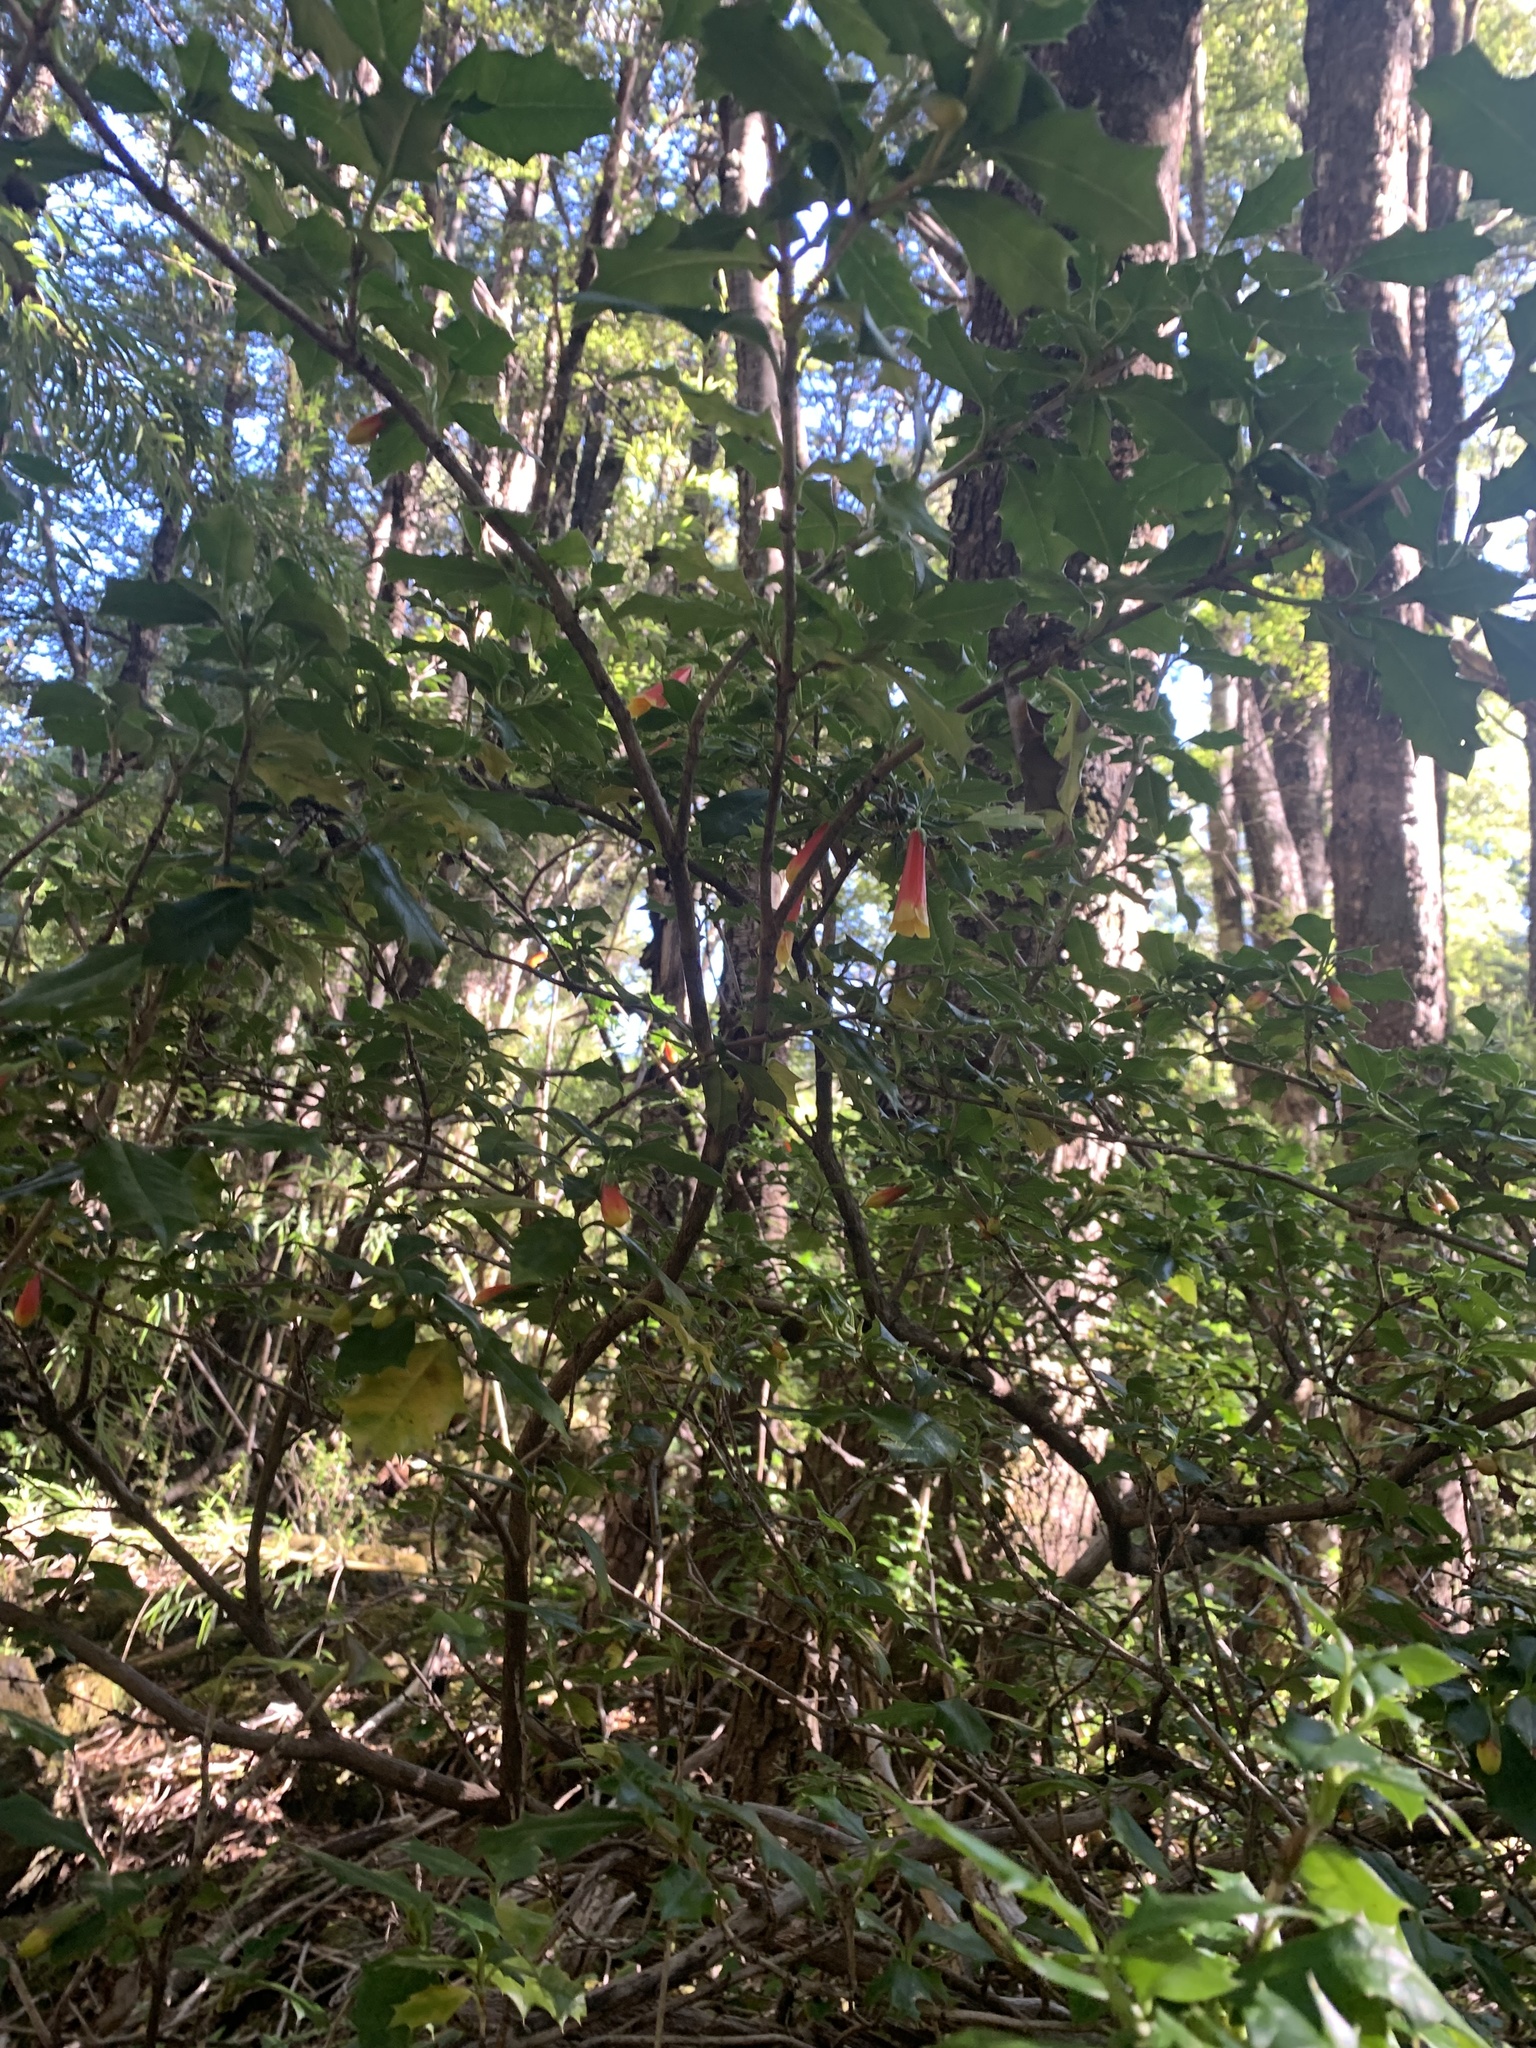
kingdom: Plantae
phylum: Tracheophyta
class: Magnoliopsida
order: Bruniales
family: Columelliaceae
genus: Desfontainia
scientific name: Desfontainia fulgens
